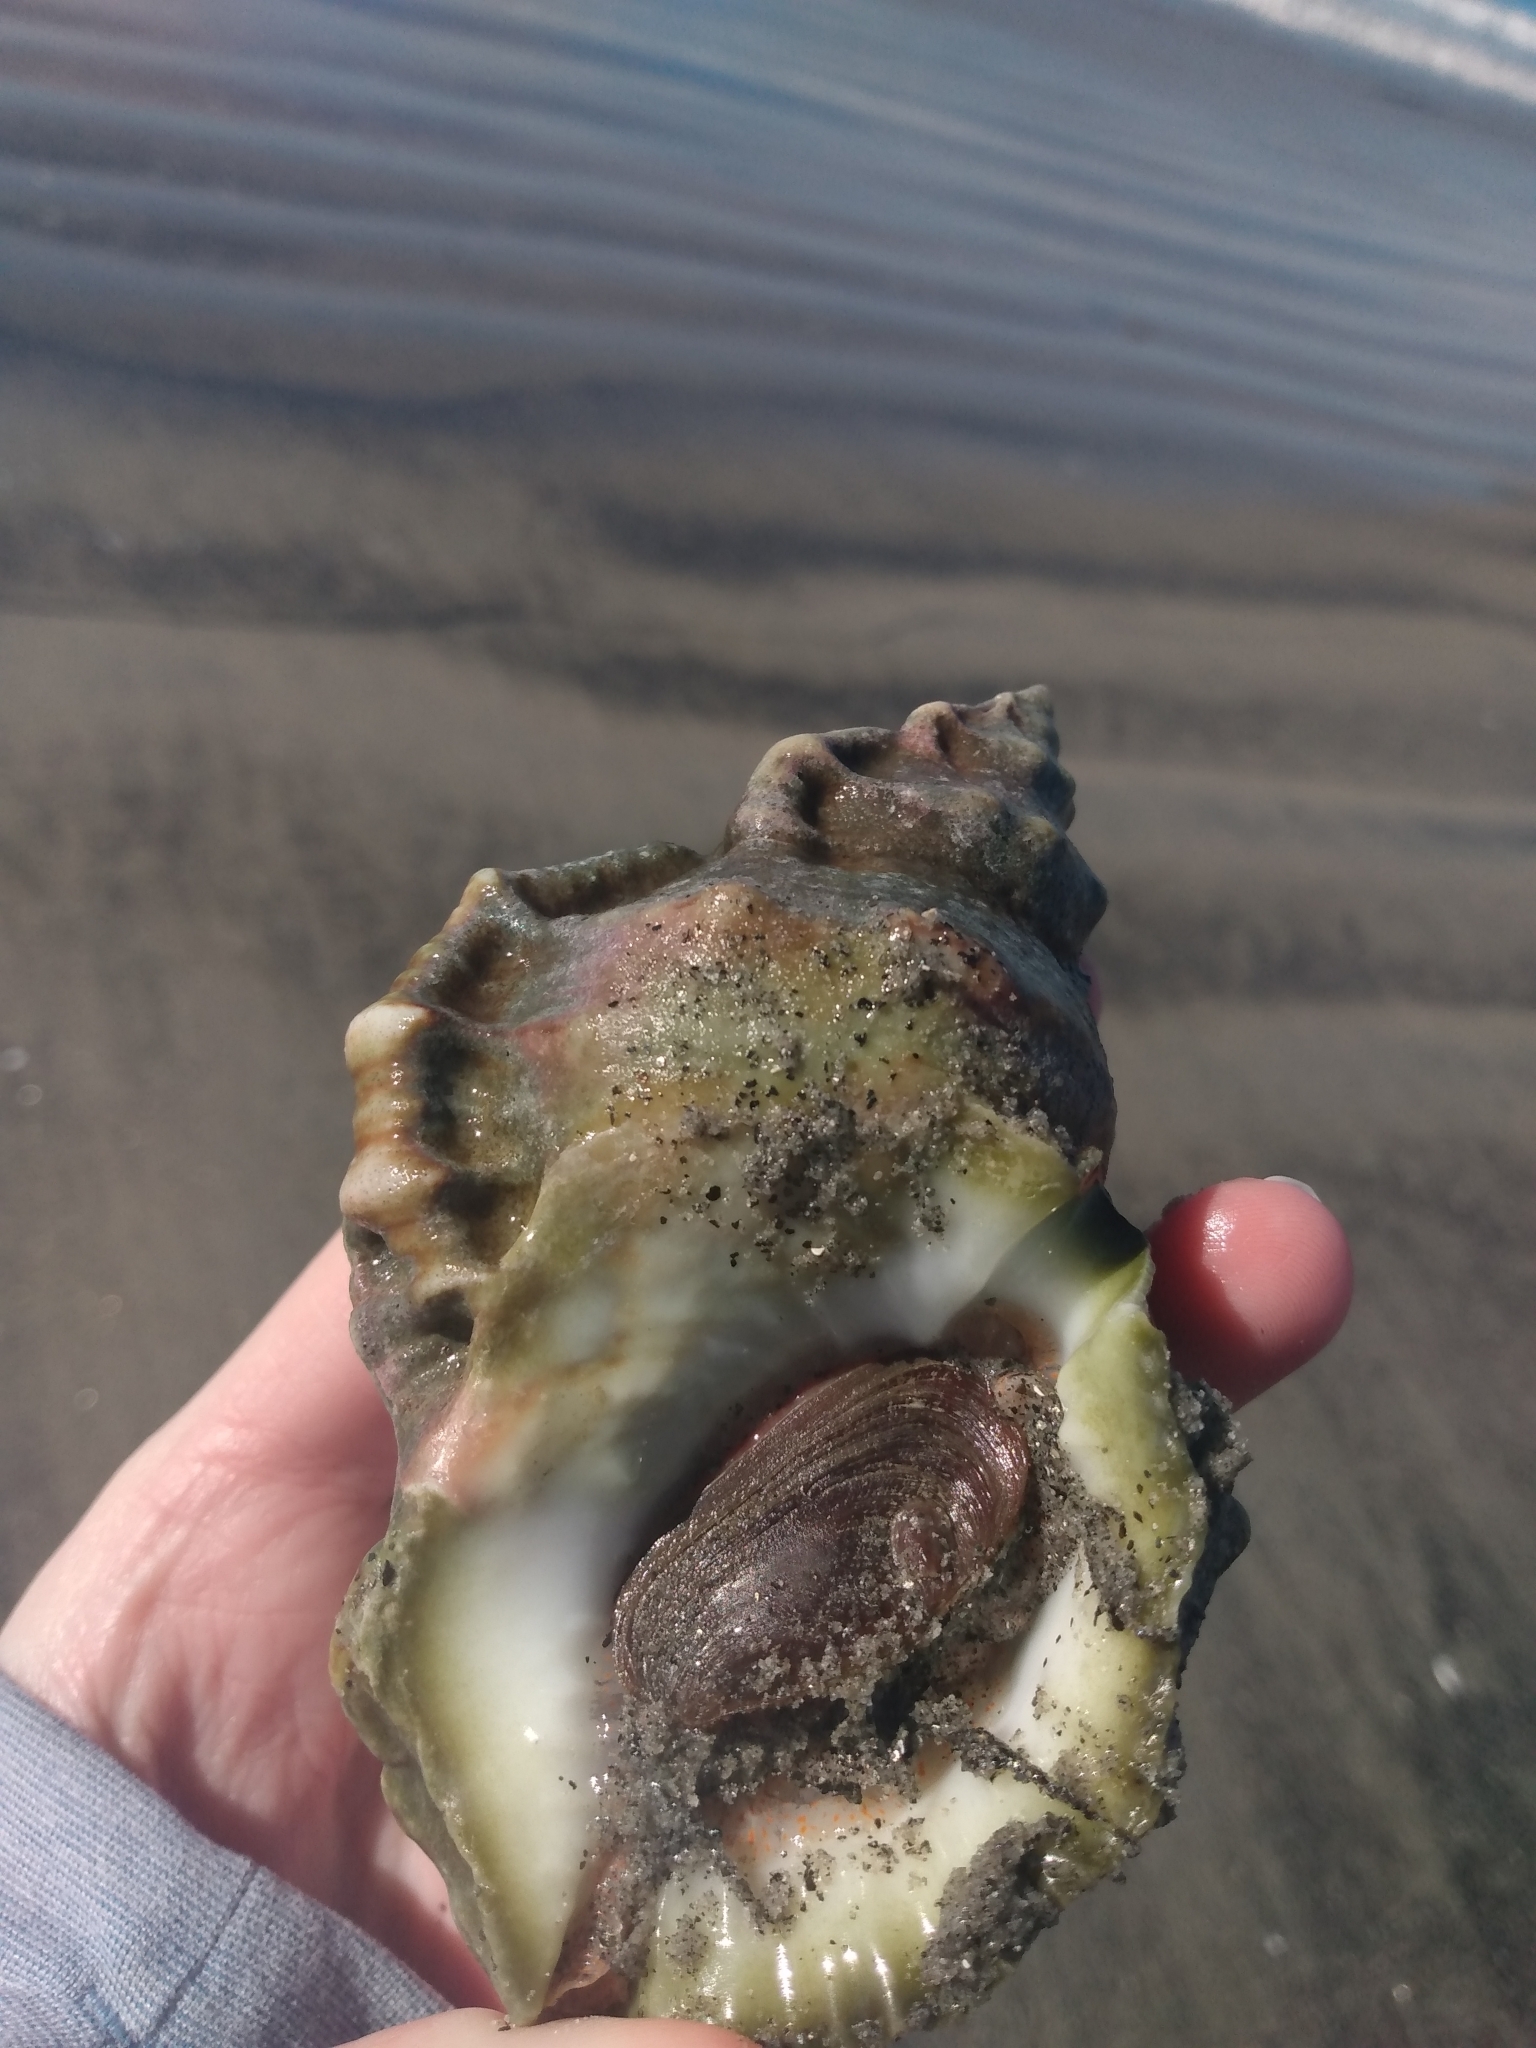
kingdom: Animalia
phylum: Mollusca
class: Gastropoda
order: Littorinimorpha
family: Bursidae
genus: Crossata
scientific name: Crossata californica
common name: California frogsnail
